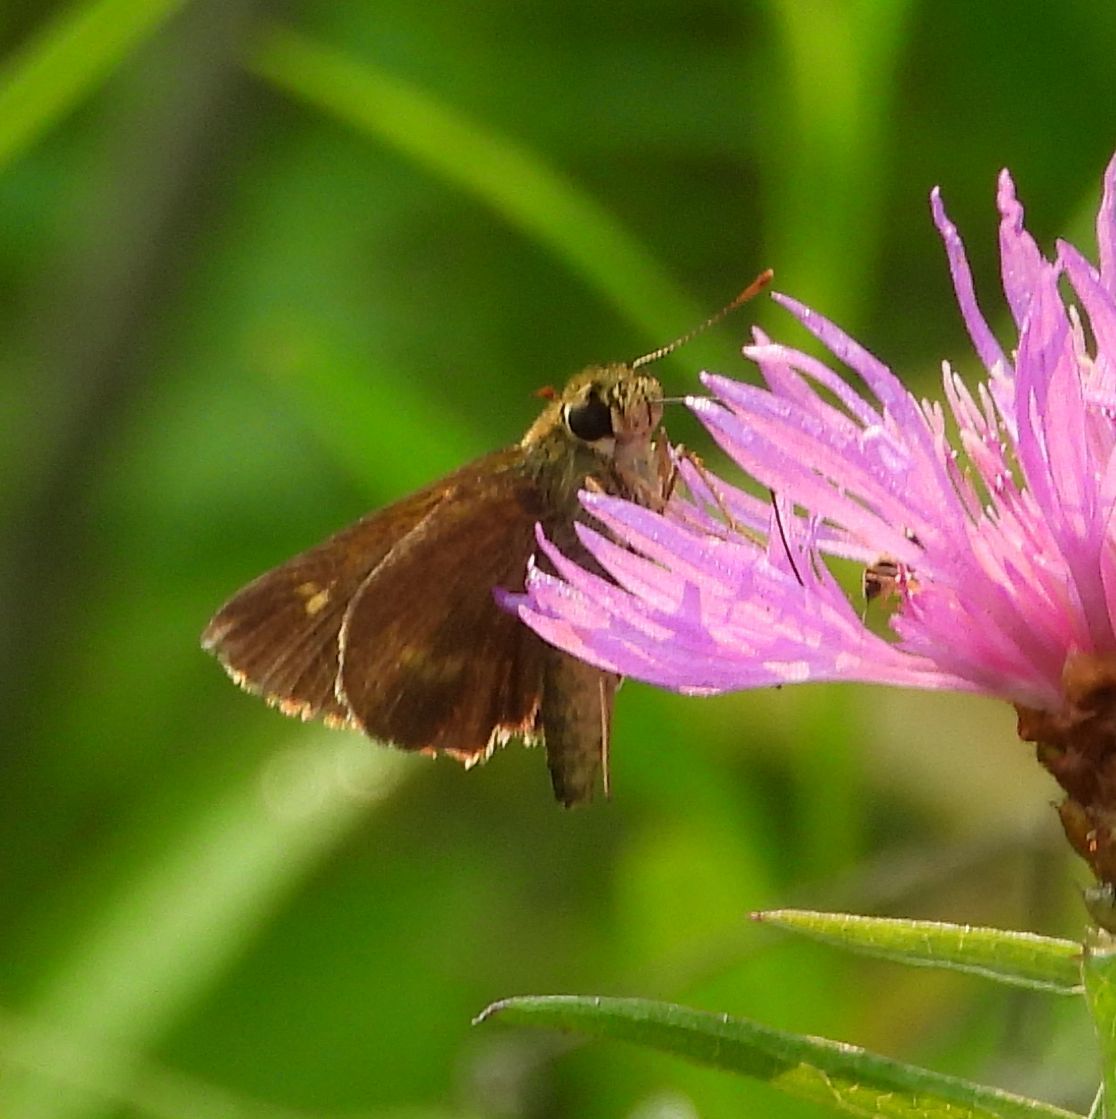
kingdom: Animalia
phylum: Arthropoda
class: Insecta
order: Lepidoptera
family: Hesperiidae
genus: Polites
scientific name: Polites egeremet
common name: Northern broken-dash
